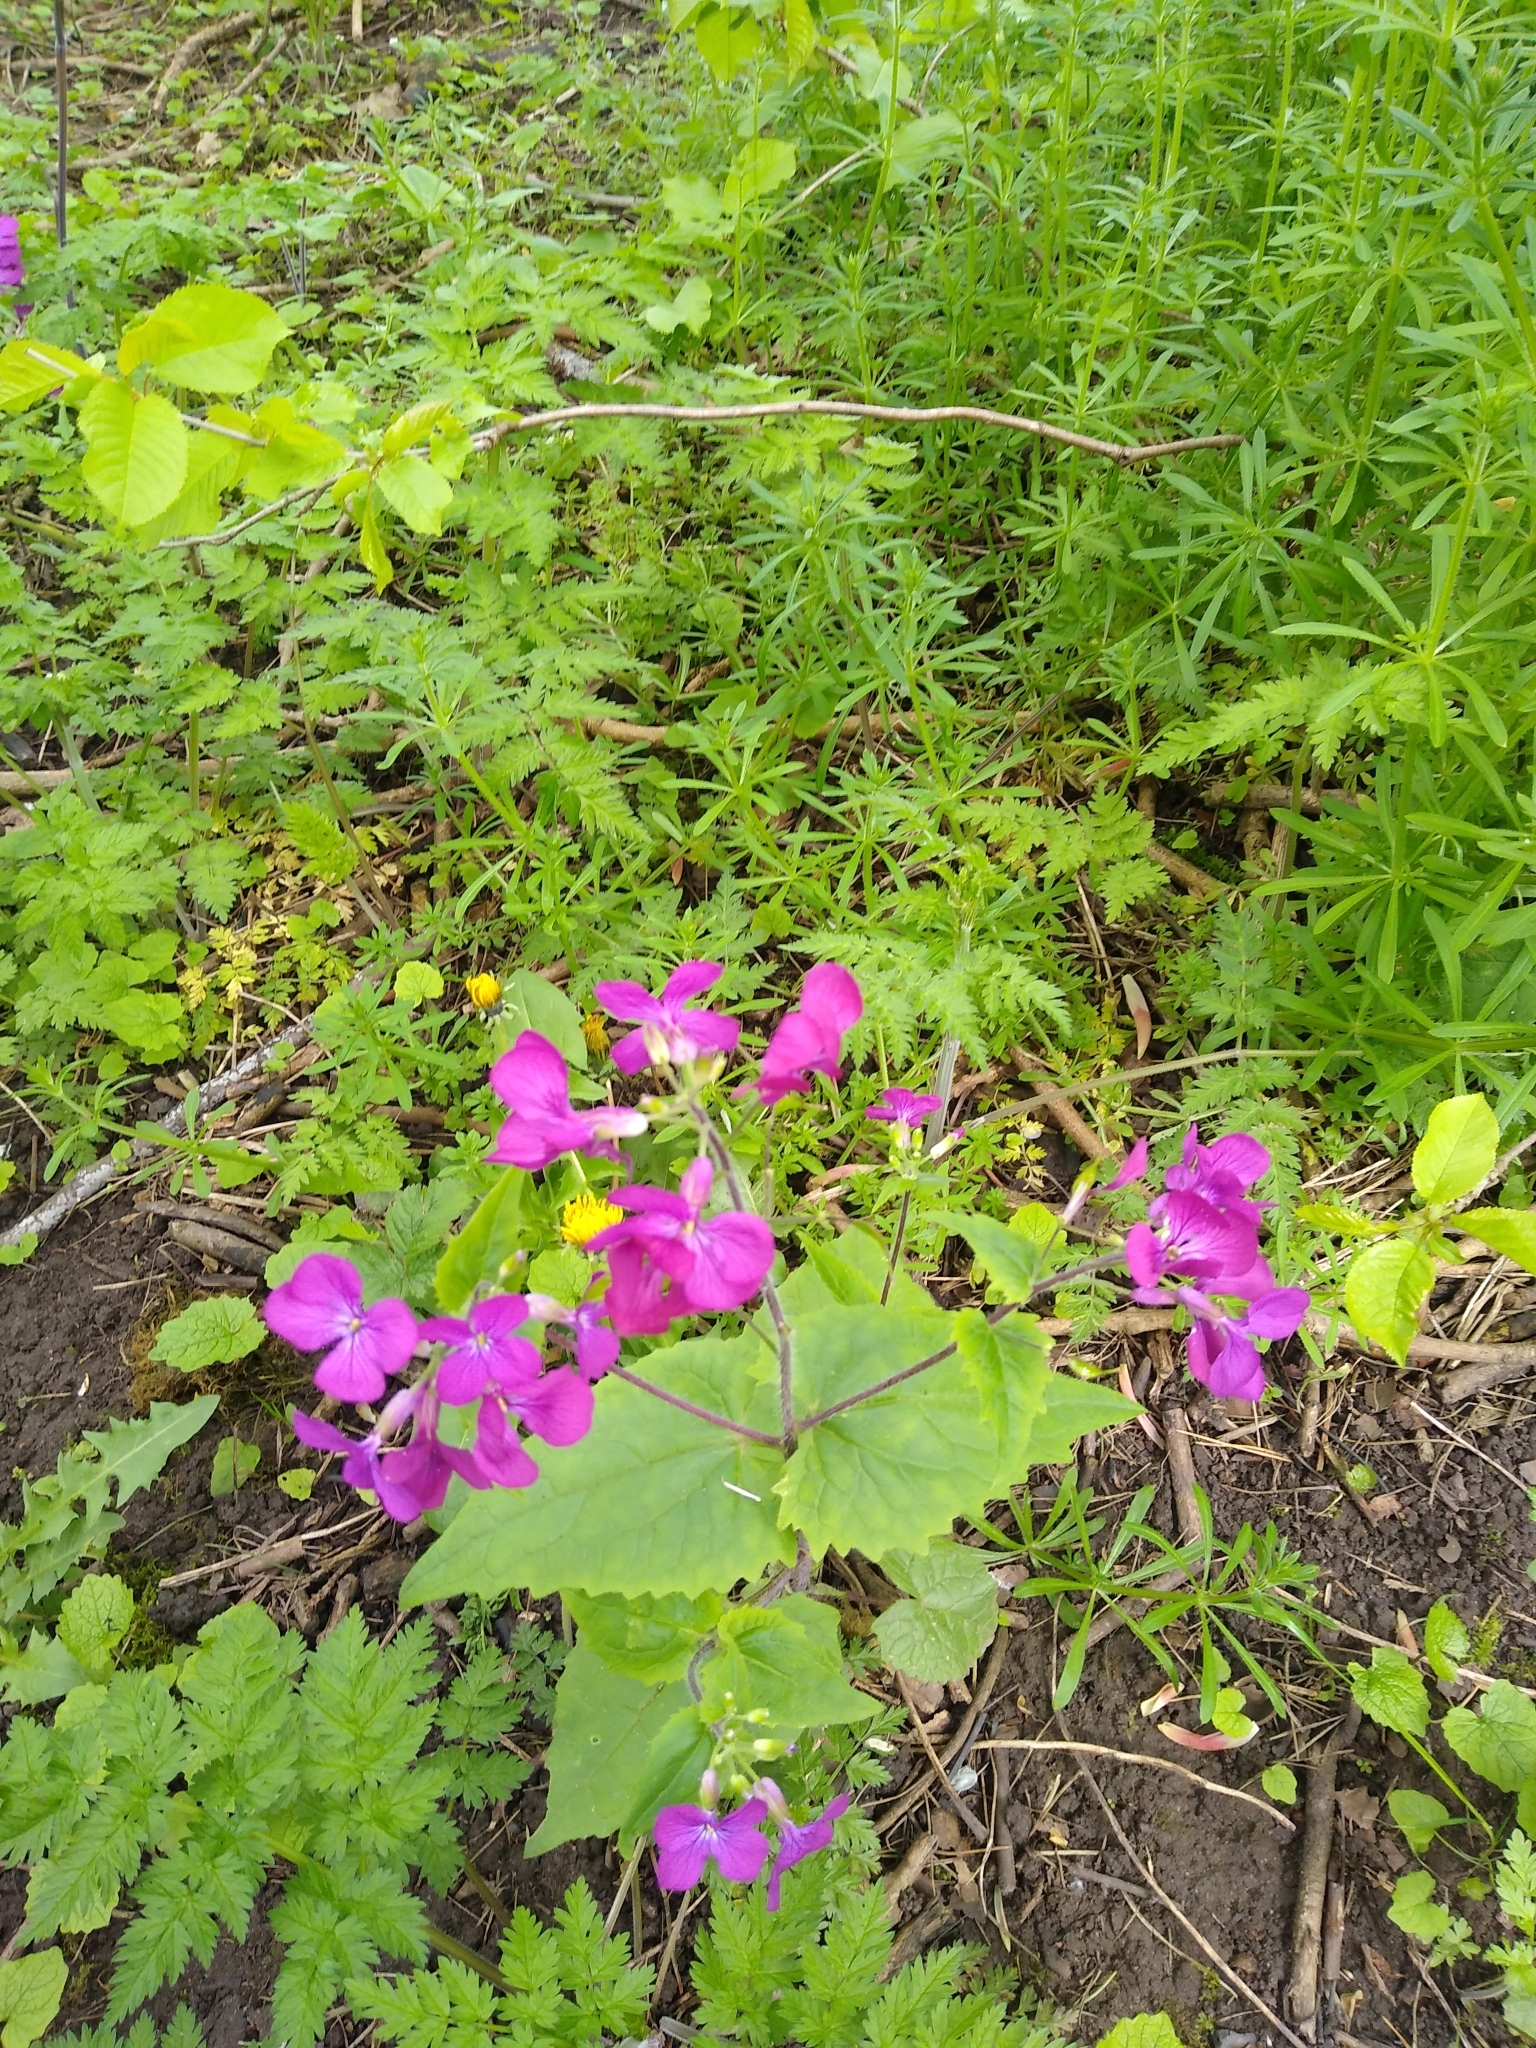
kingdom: Plantae
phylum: Tracheophyta
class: Magnoliopsida
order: Brassicales
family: Brassicaceae
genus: Lunaria
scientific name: Lunaria annua
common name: Honesty
